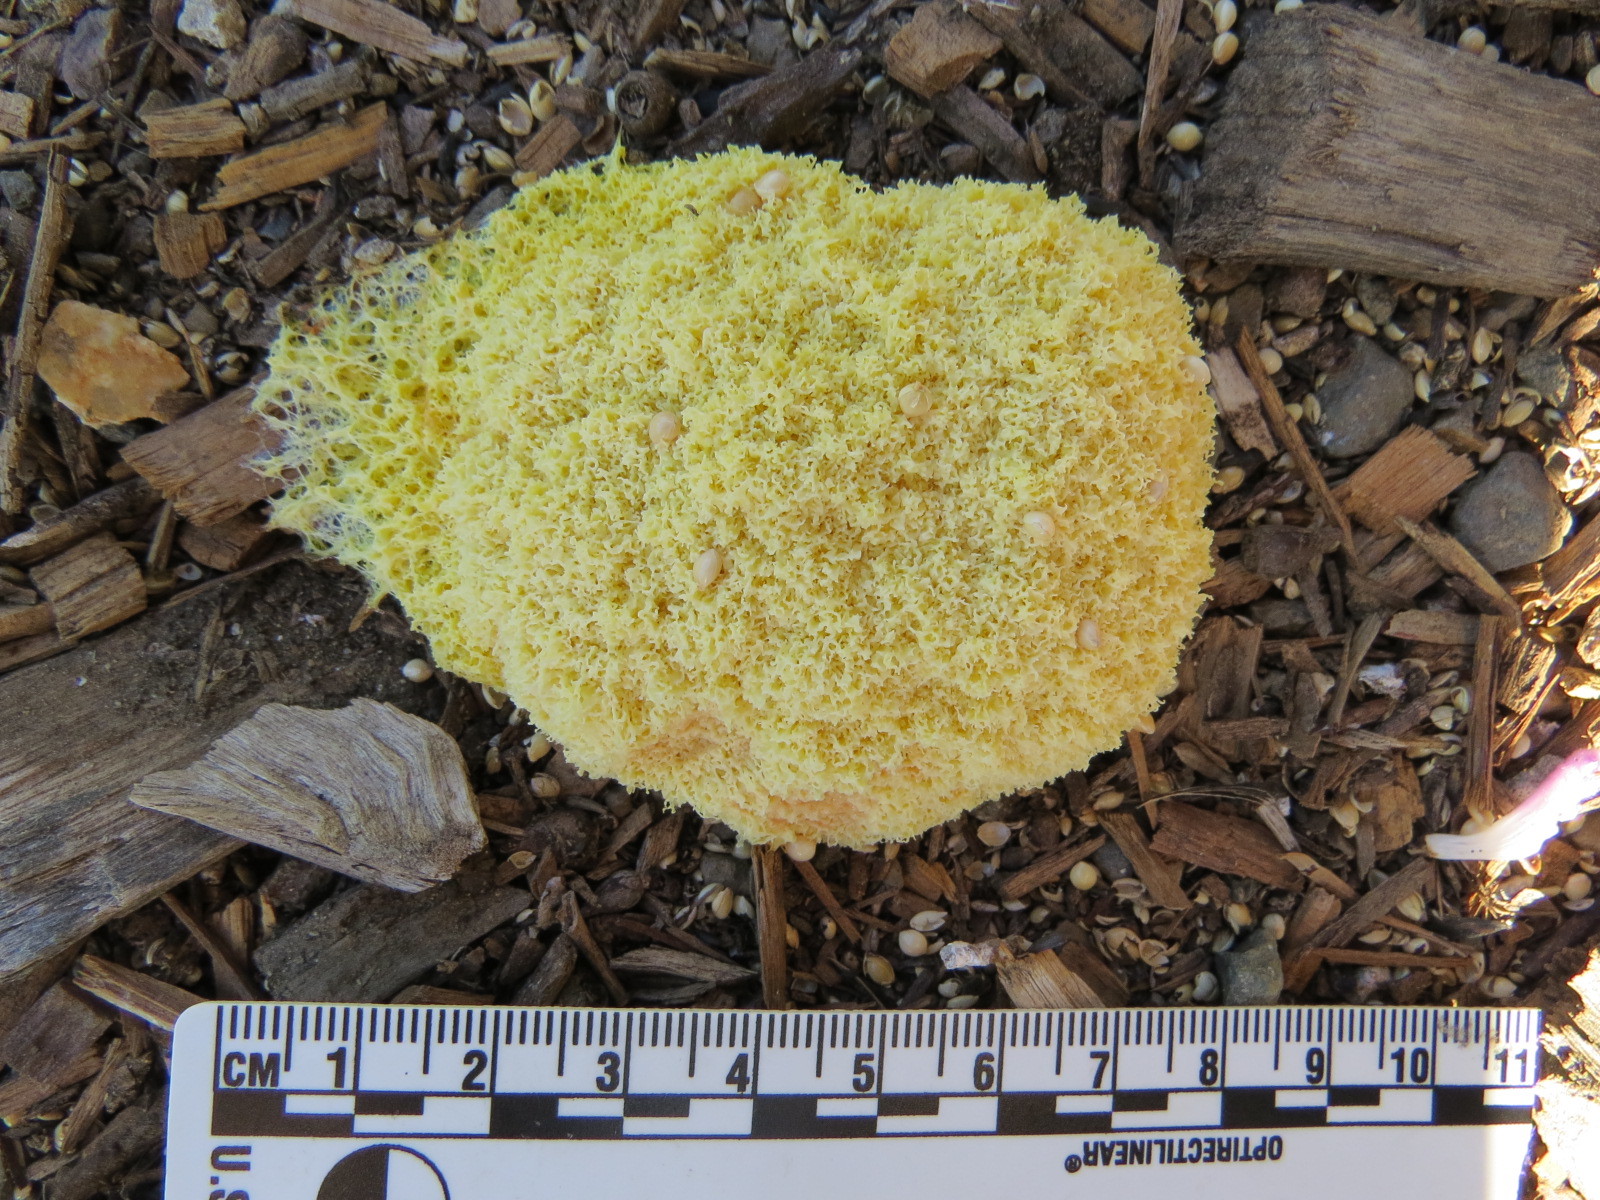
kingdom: Protozoa
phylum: Mycetozoa
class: Myxomycetes
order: Physarales
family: Physaraceae
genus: Fuligo
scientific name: Fuligo septica
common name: Dog vomit slime mold
